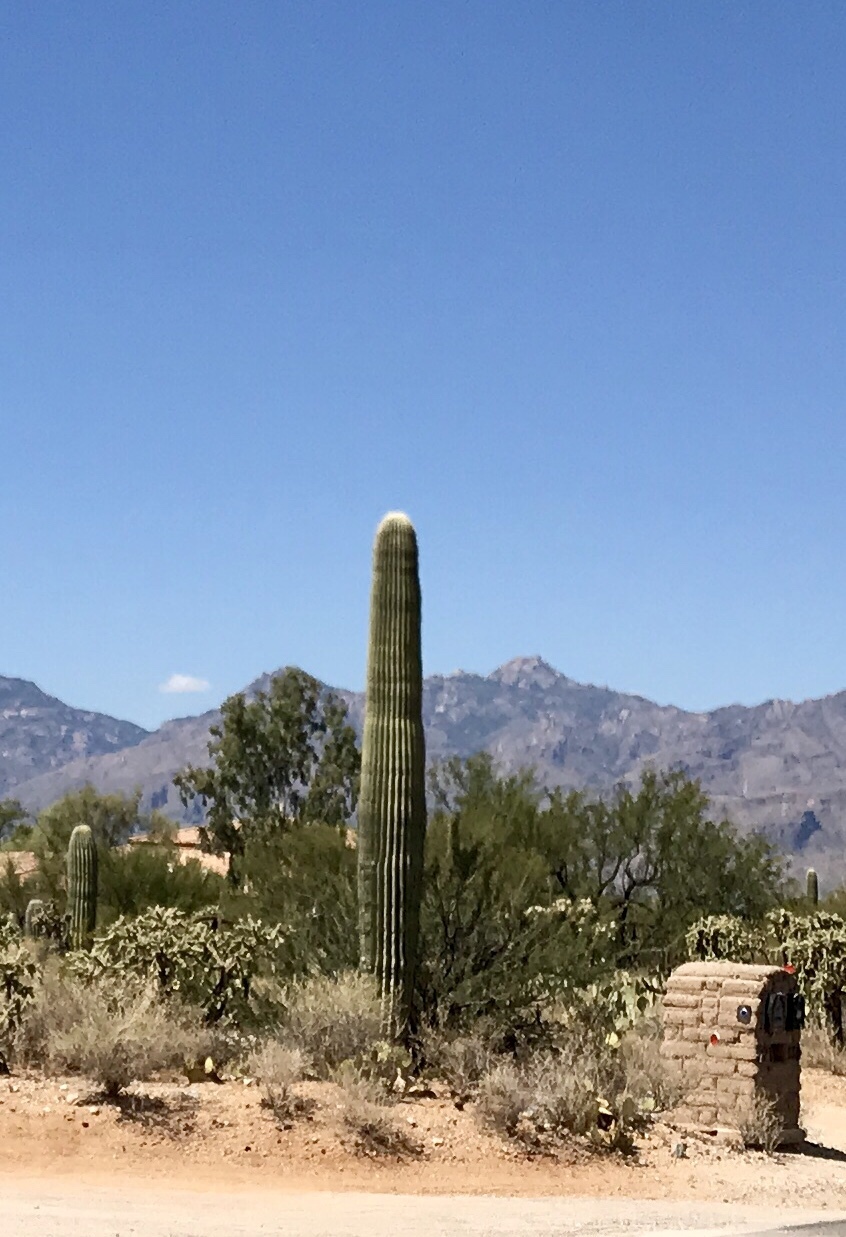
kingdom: Plantae
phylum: Tracheophyta
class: Magnoliopsida
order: Caryophyllales
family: Cactaceae
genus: Carnegiea
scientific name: Carnegiea gigantea
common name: Saguaro
